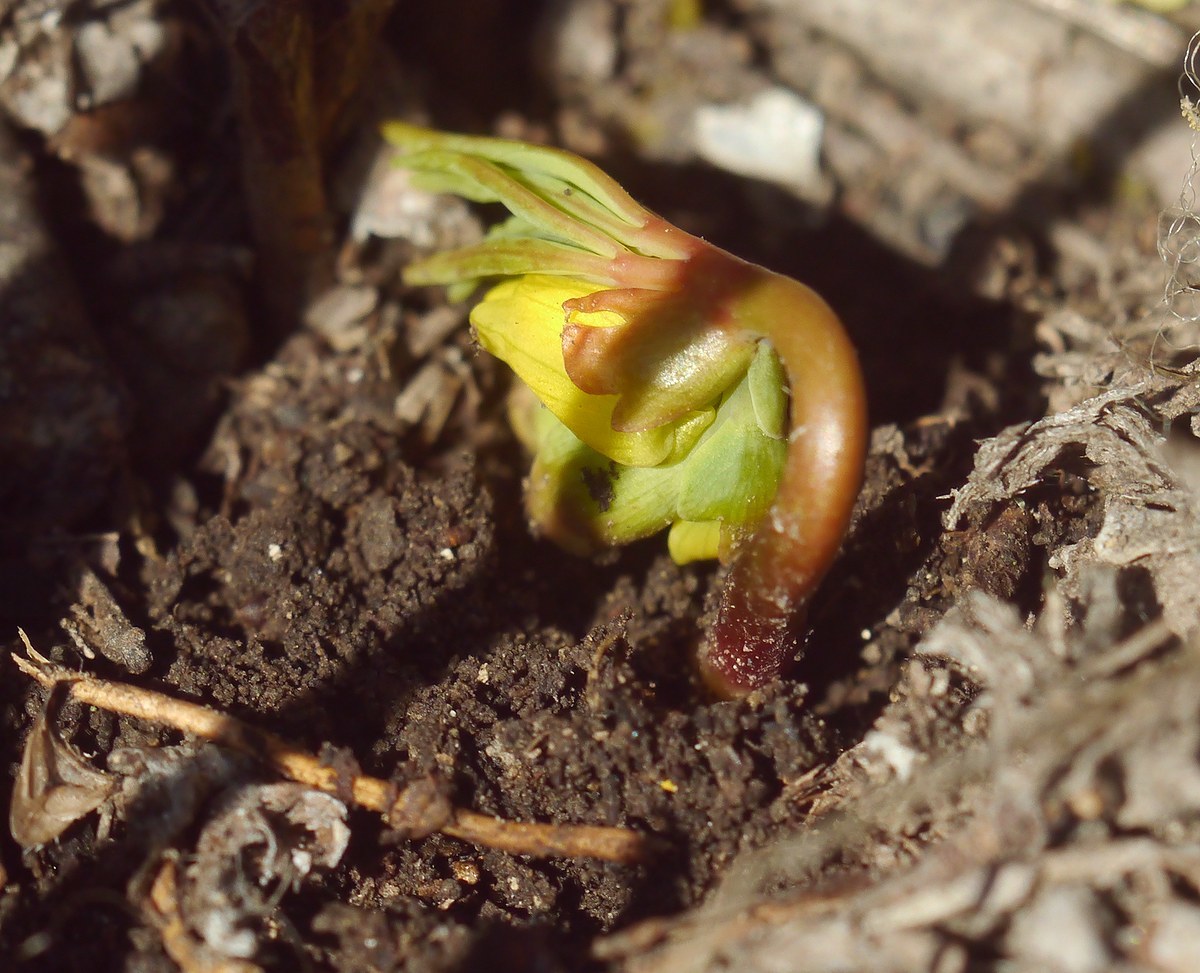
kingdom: Plantae
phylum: Tracheophyta
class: Magnoliopsida
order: Ranunculales
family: Berberidaceae
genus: Gymnospermium
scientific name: Gymnospermium odessanum
